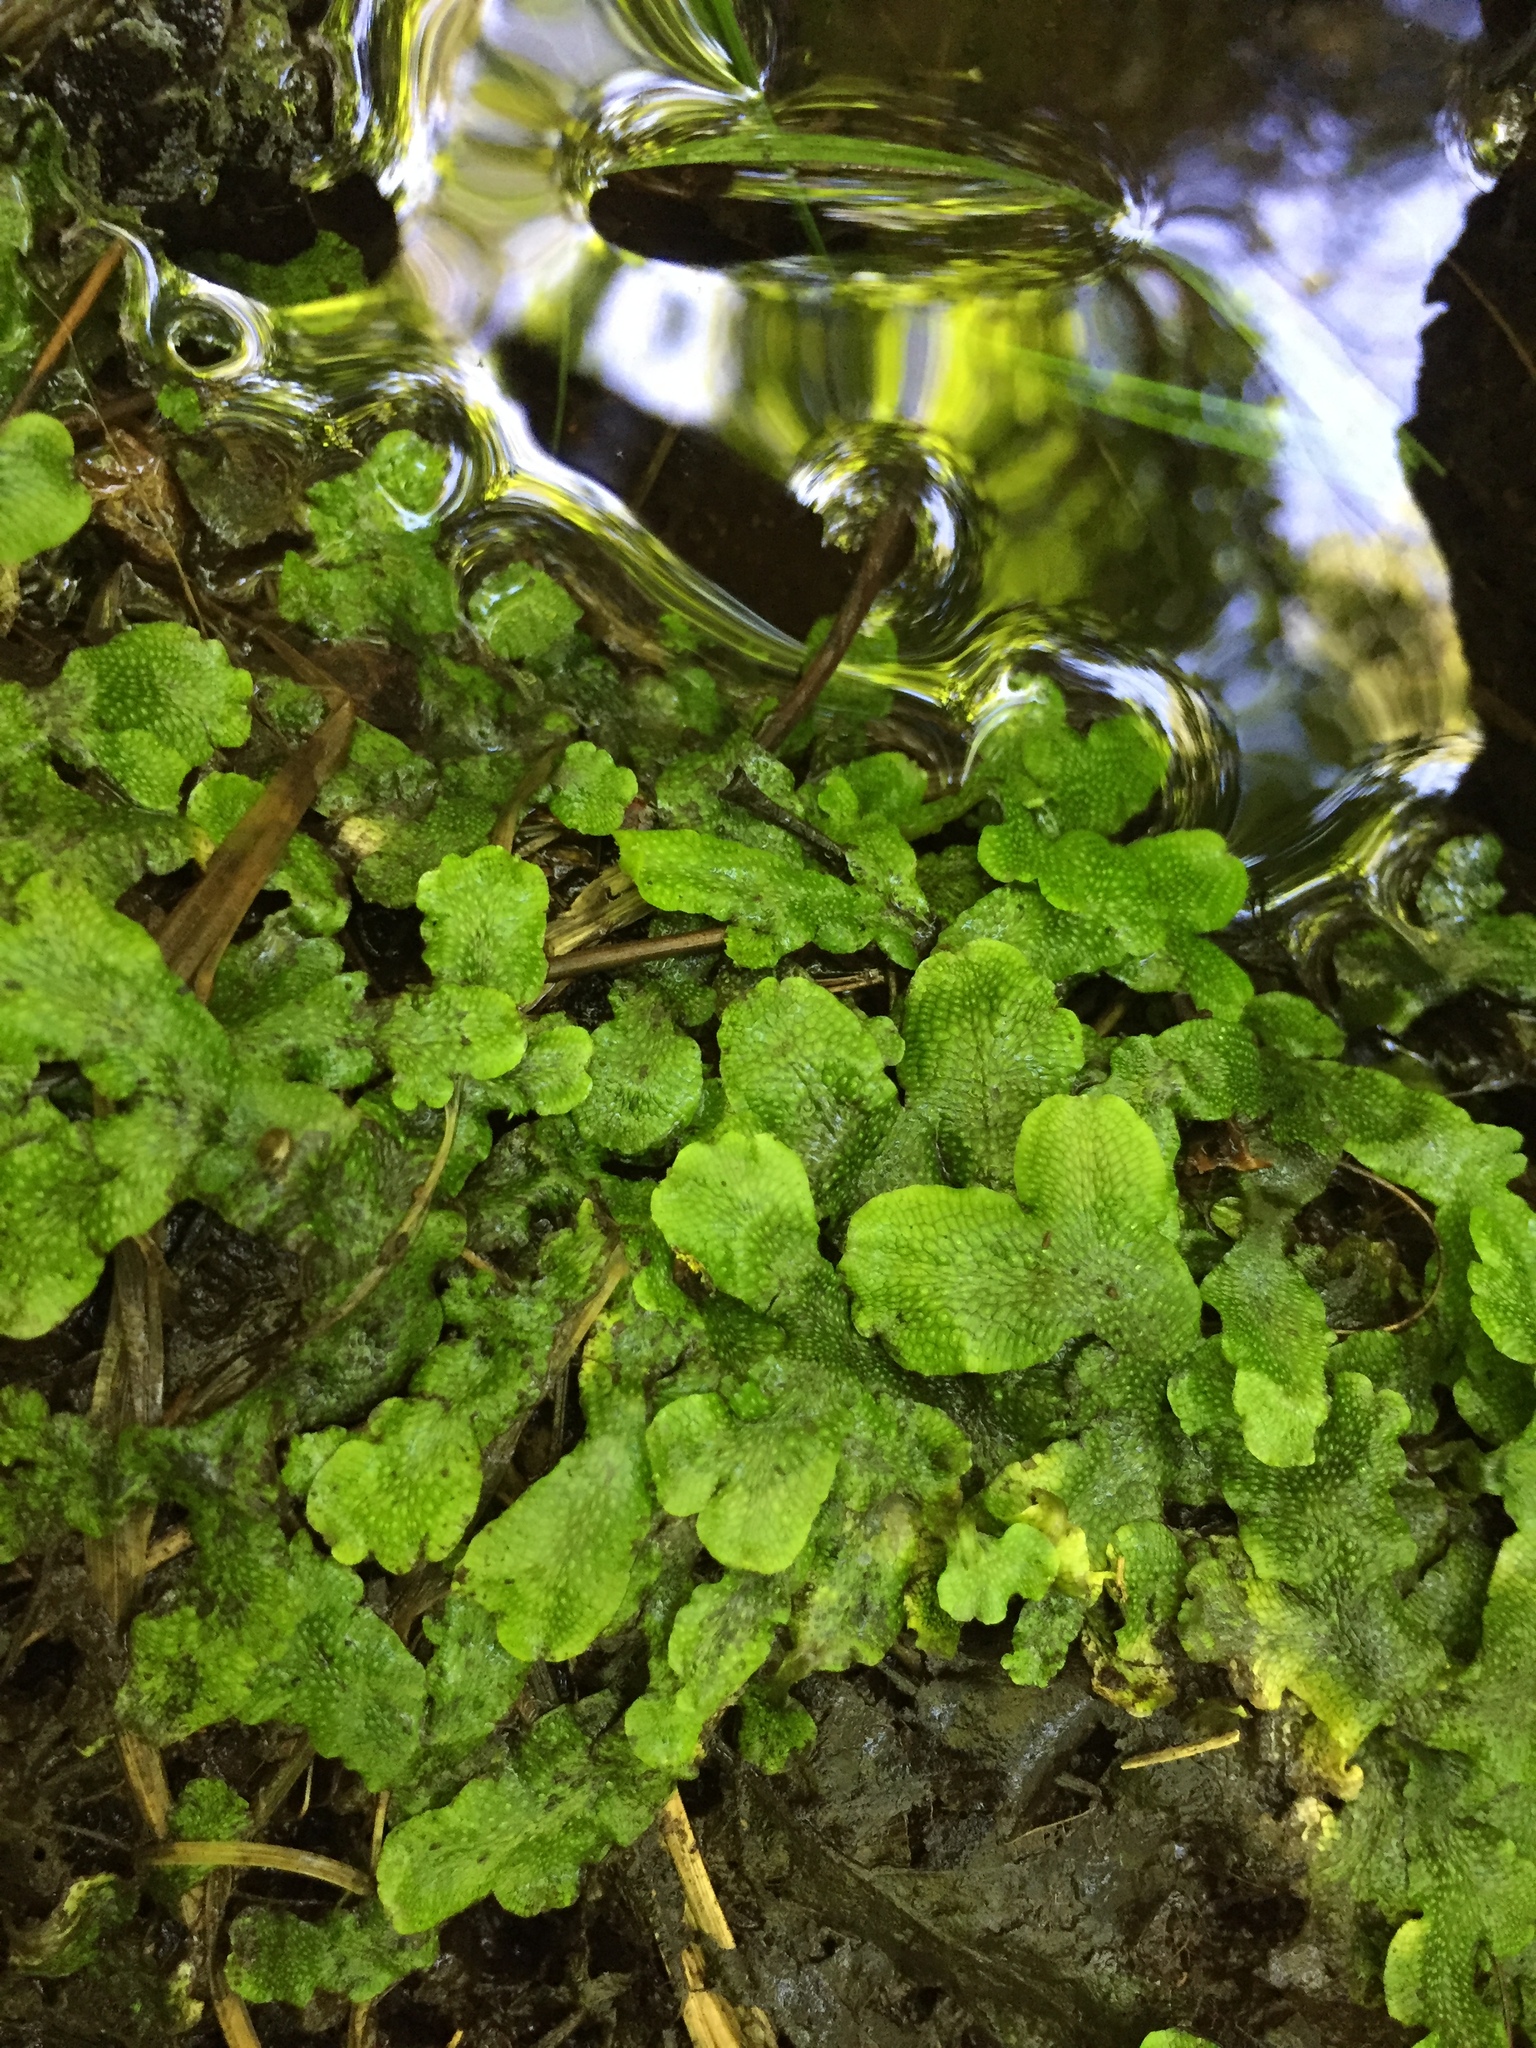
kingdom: Plantae
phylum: Marchantiophyta
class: Marchantiopsida
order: Marchantiales
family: Conocephalaceae
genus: Conocephalum
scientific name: Conocephalum salebrosum
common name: Cat-tongue liverwort
